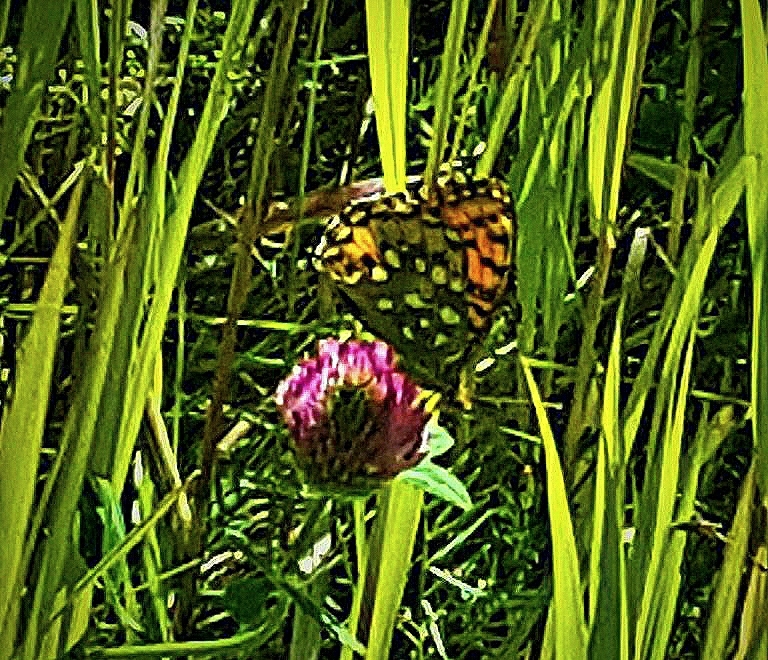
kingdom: Animalia
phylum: Arthropoda
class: Insecta
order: Lepidoptera
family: Nymphalidae
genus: Speyeria
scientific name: Speyeria aglaja
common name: Dark green fritillary
